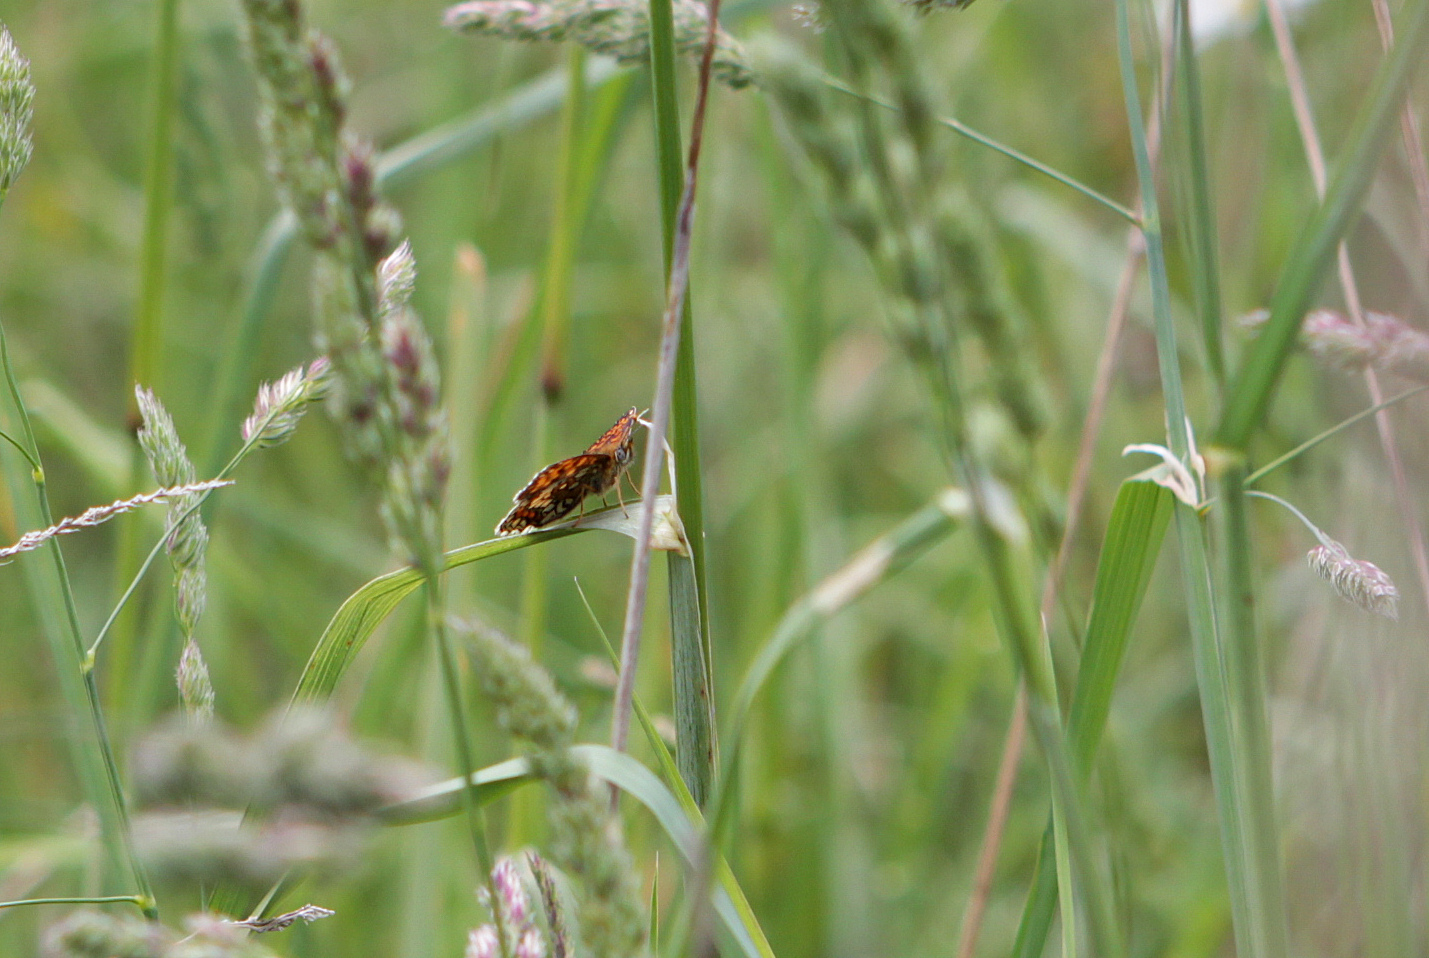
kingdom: Animalia
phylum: Arthropoda
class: Insecta
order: Lepidoptera
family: Nymphalidae
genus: Melitaea
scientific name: Melitaea athalia
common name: Heath fritillary
